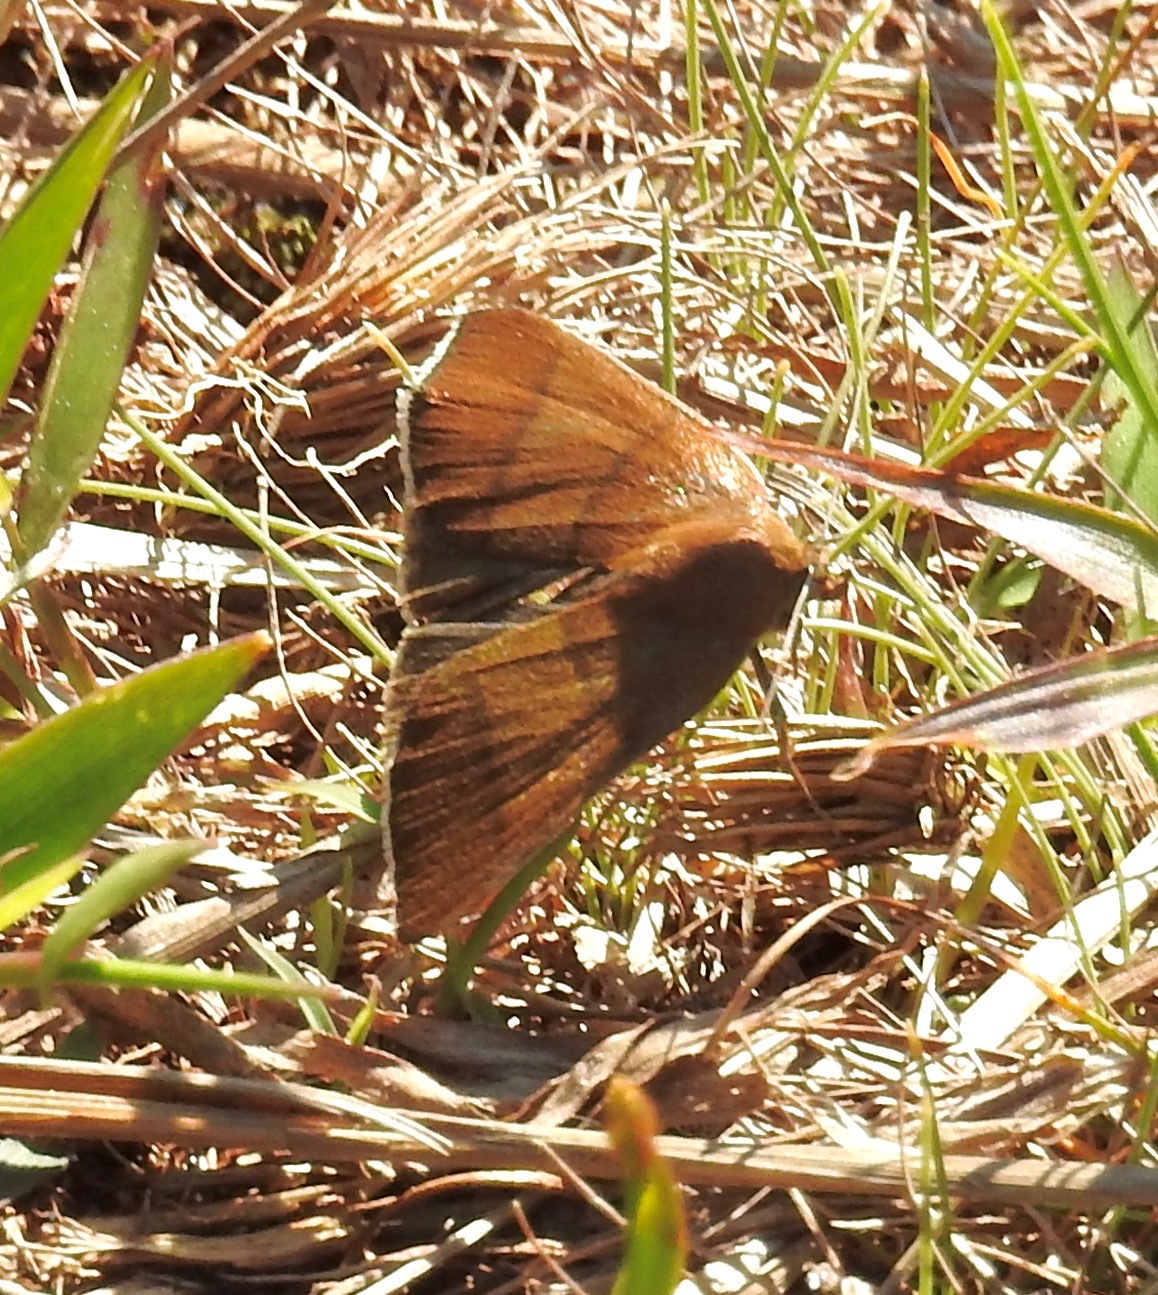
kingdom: Animalia
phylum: Arthropoda
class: Insecta
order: Lepidoptera
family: Erebidae
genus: Argyrostrotis
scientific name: Argyrostrotis quadrifilaris
